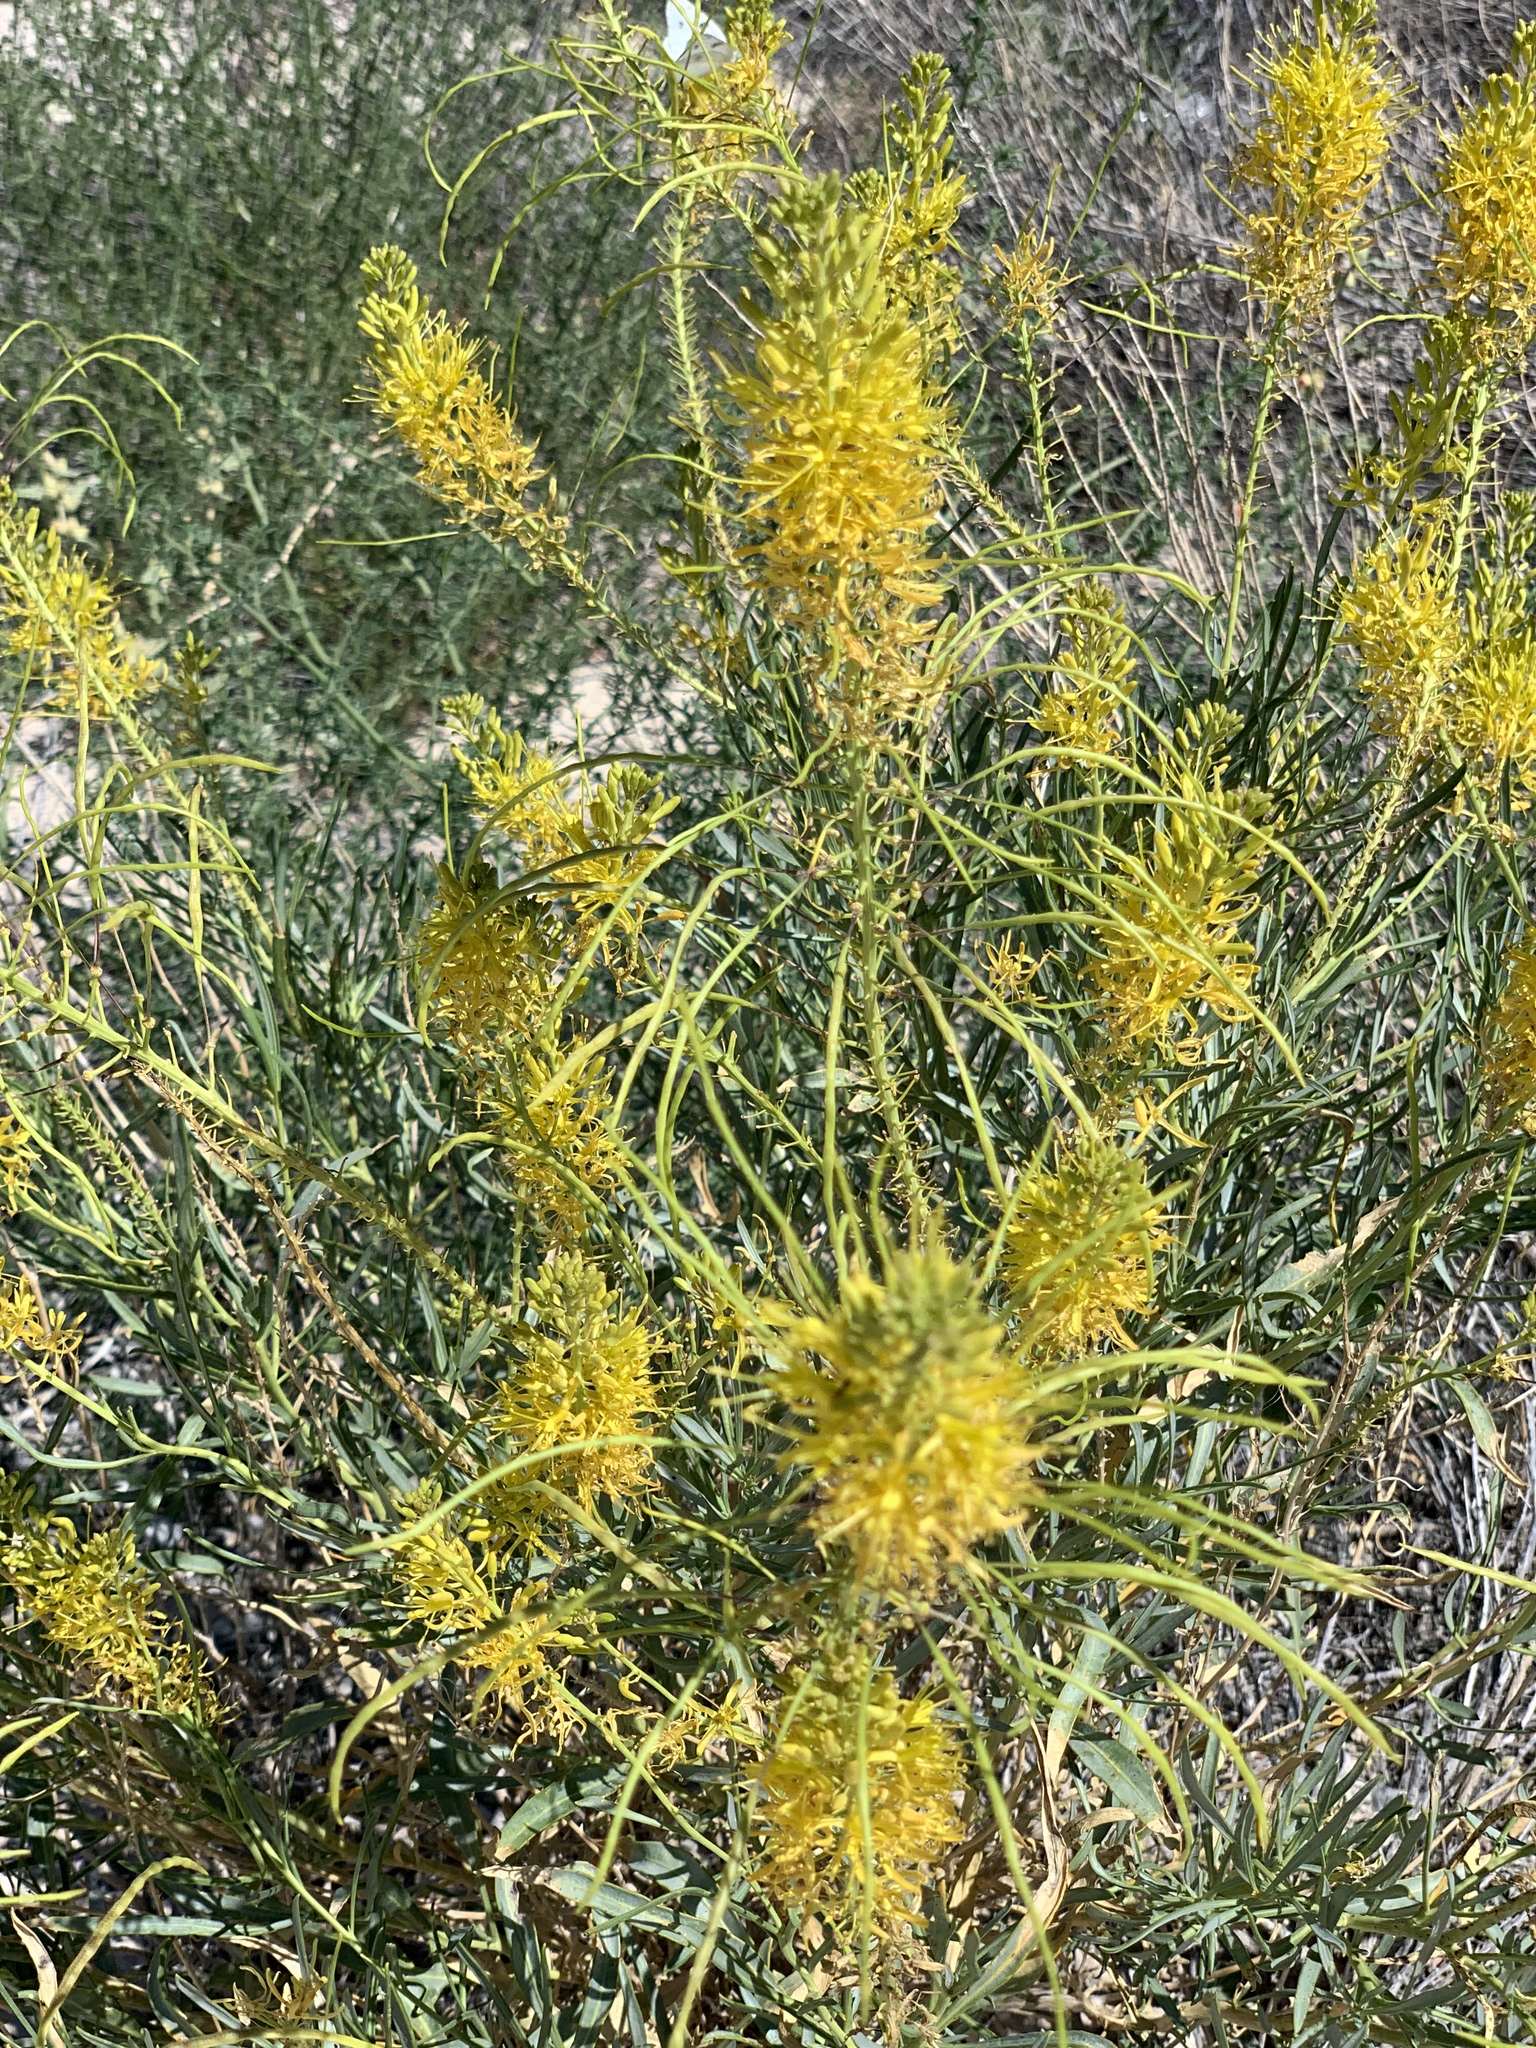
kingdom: Plantae
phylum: Tracheophyta
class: Magnoliopsida
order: Brassicales
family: Brassicaceae
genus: Stanleya
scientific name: Stanleya pinnata
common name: Prince's-plume
